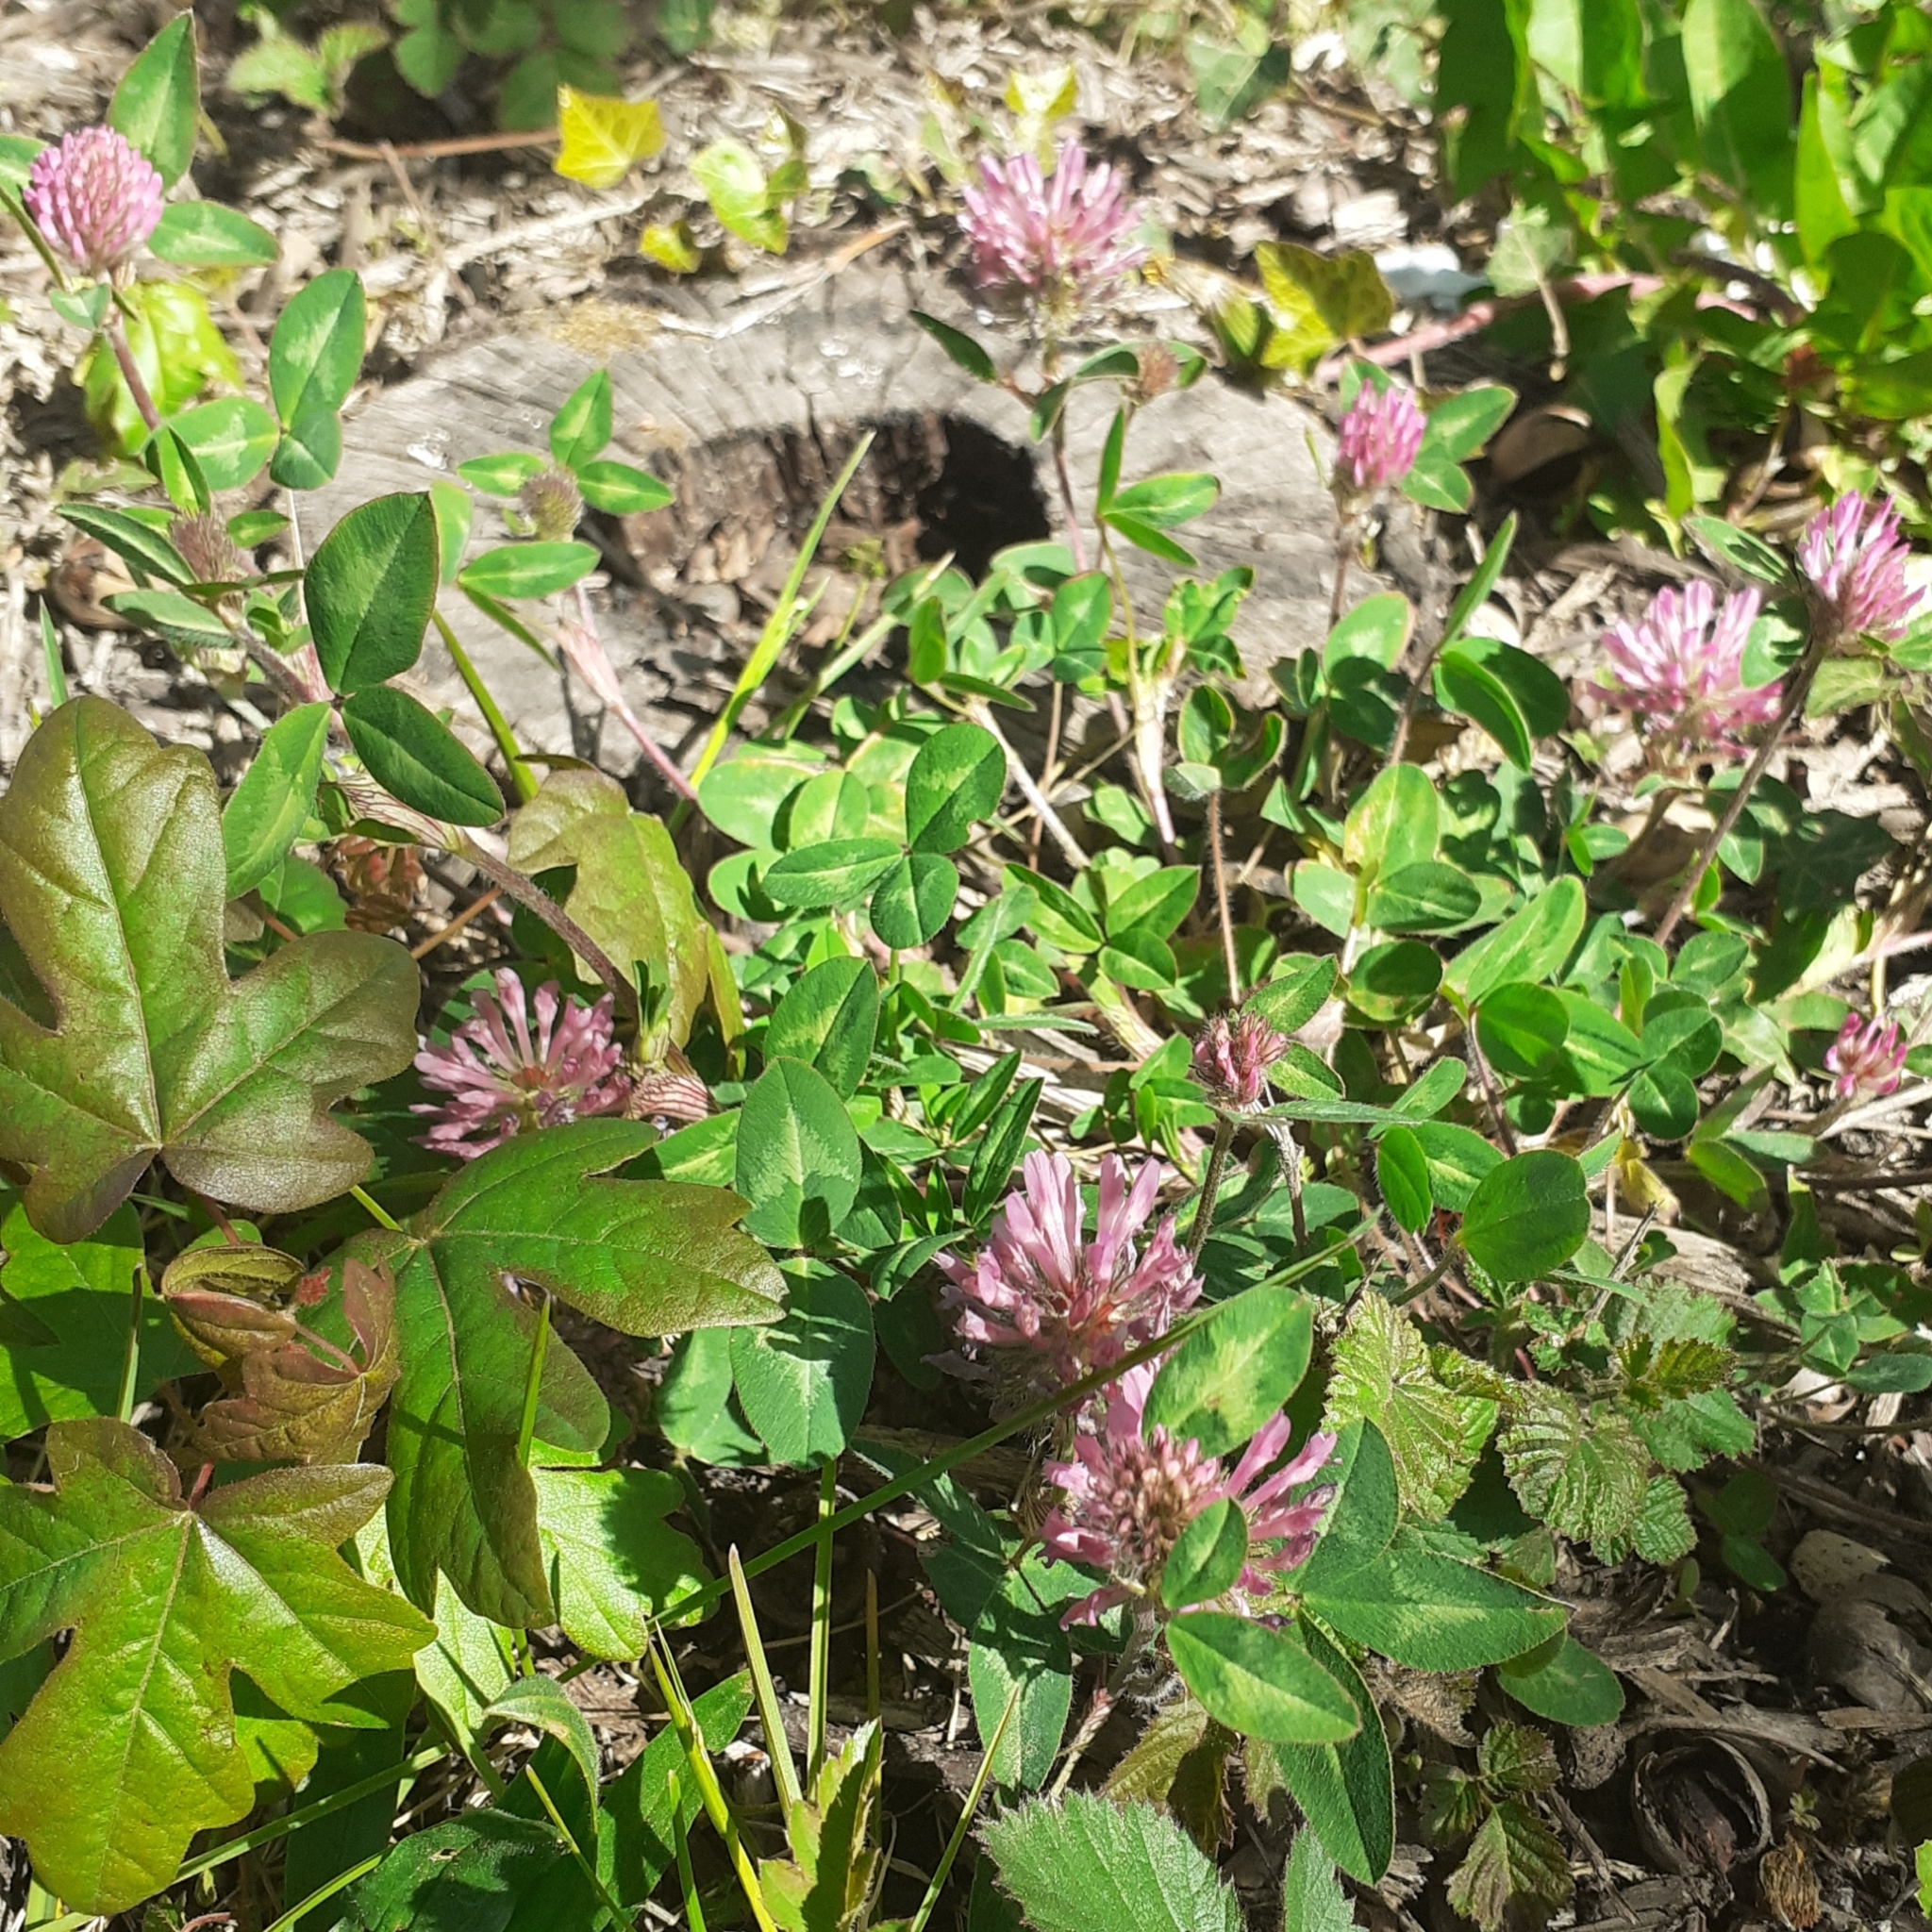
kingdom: Plantae
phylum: Tracheophyta
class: Magnoliopsida
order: Fabales
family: Fabaceae
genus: Trifolium
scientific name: Trifolium pratense
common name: Red clover
